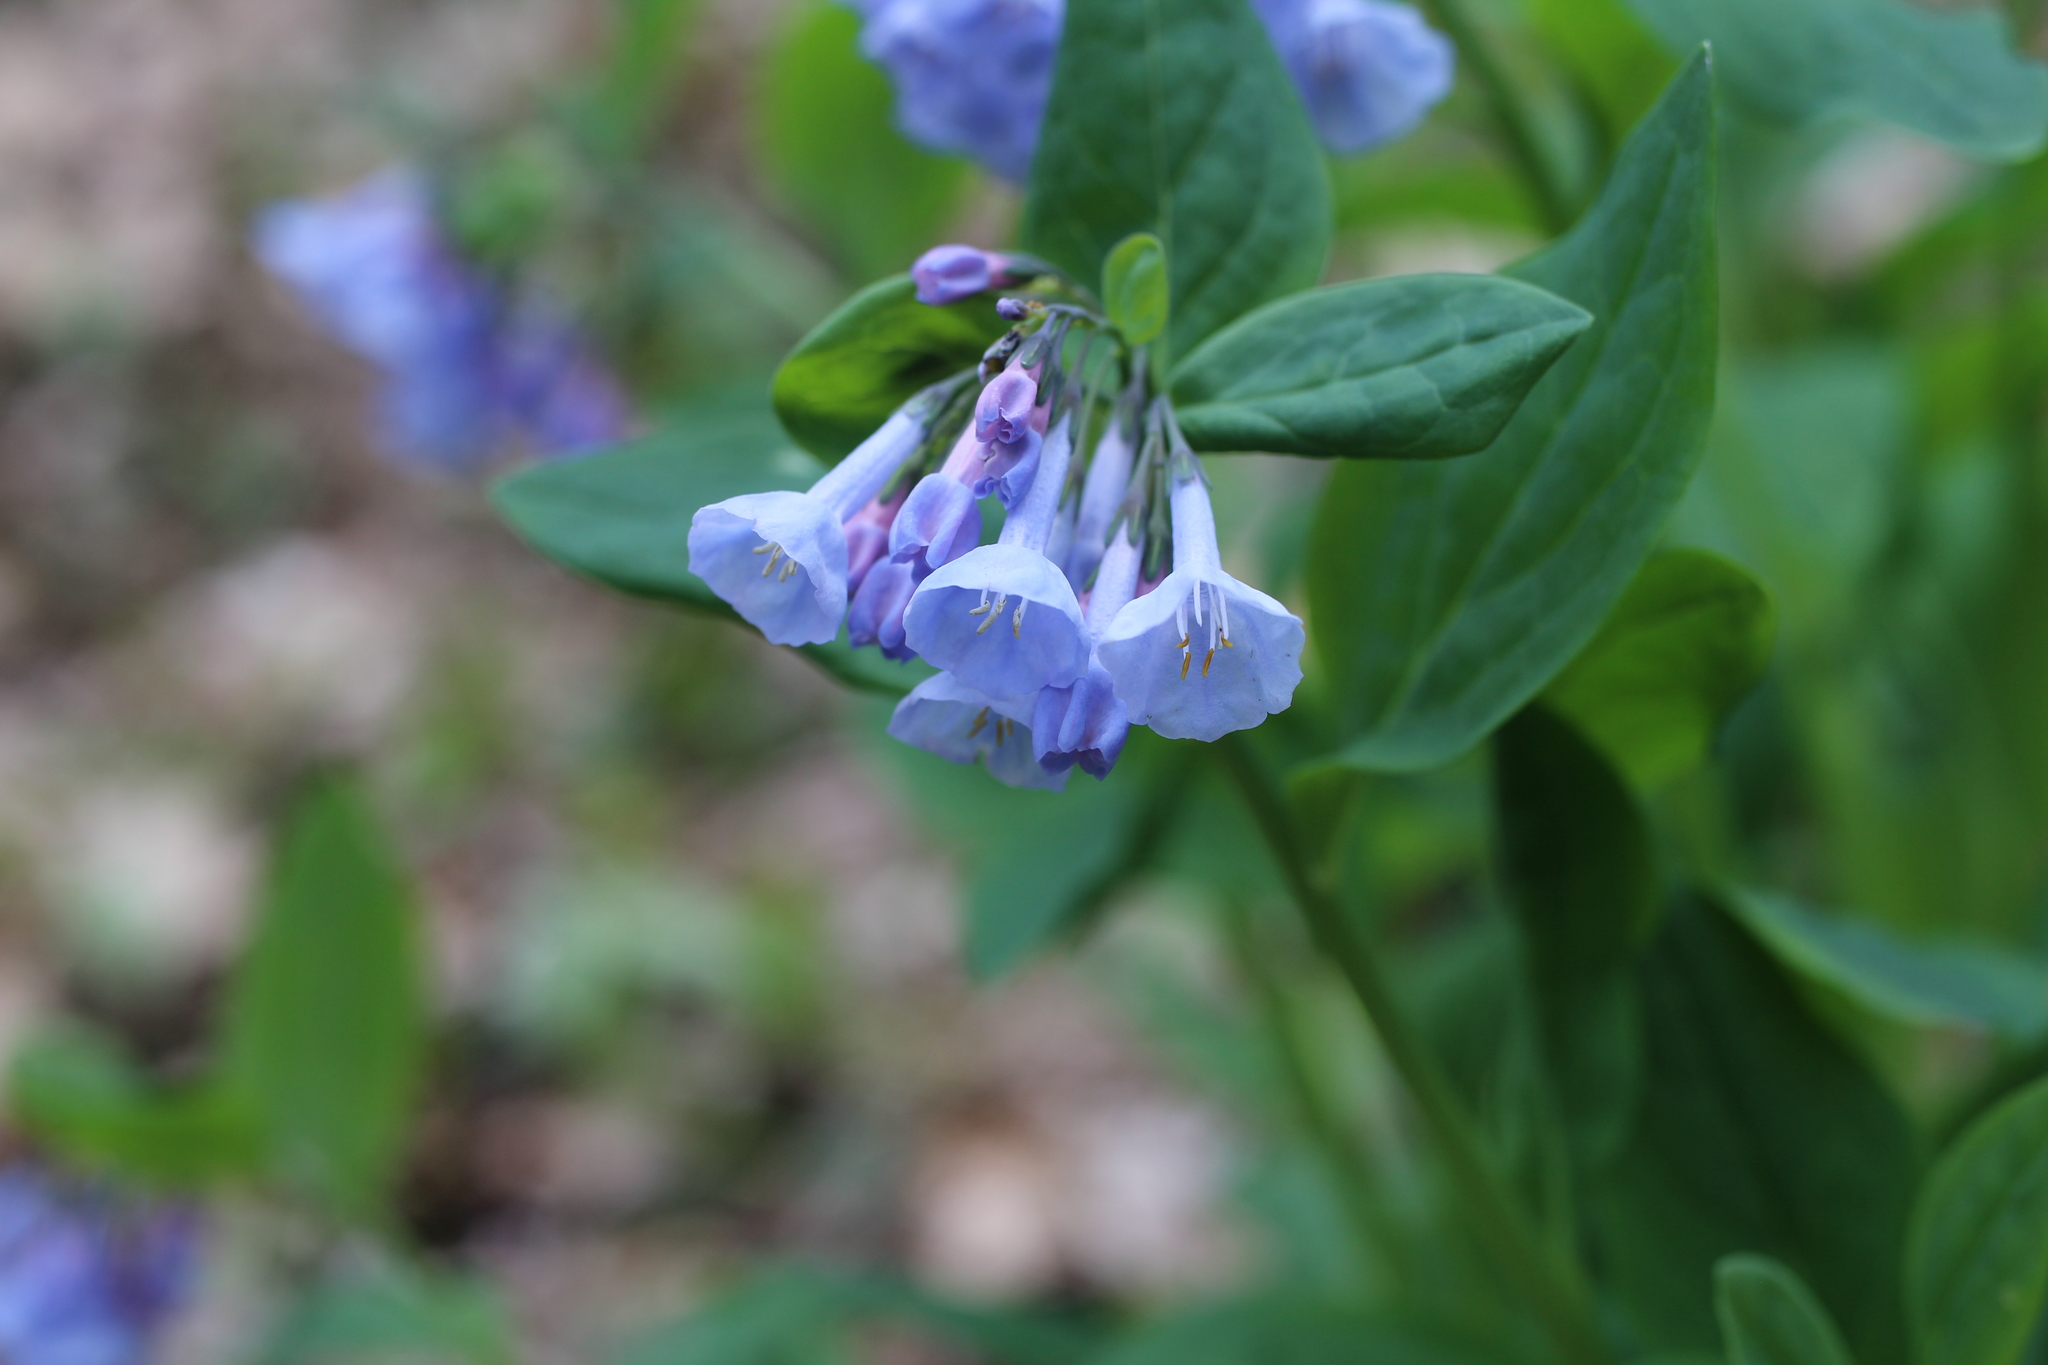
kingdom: Plantae
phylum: Tracheophyta
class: Magnoliopsida
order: Boraginales
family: Boraginaceae
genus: Mertensia
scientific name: Mertensia virginica
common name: Virginia bluebells
